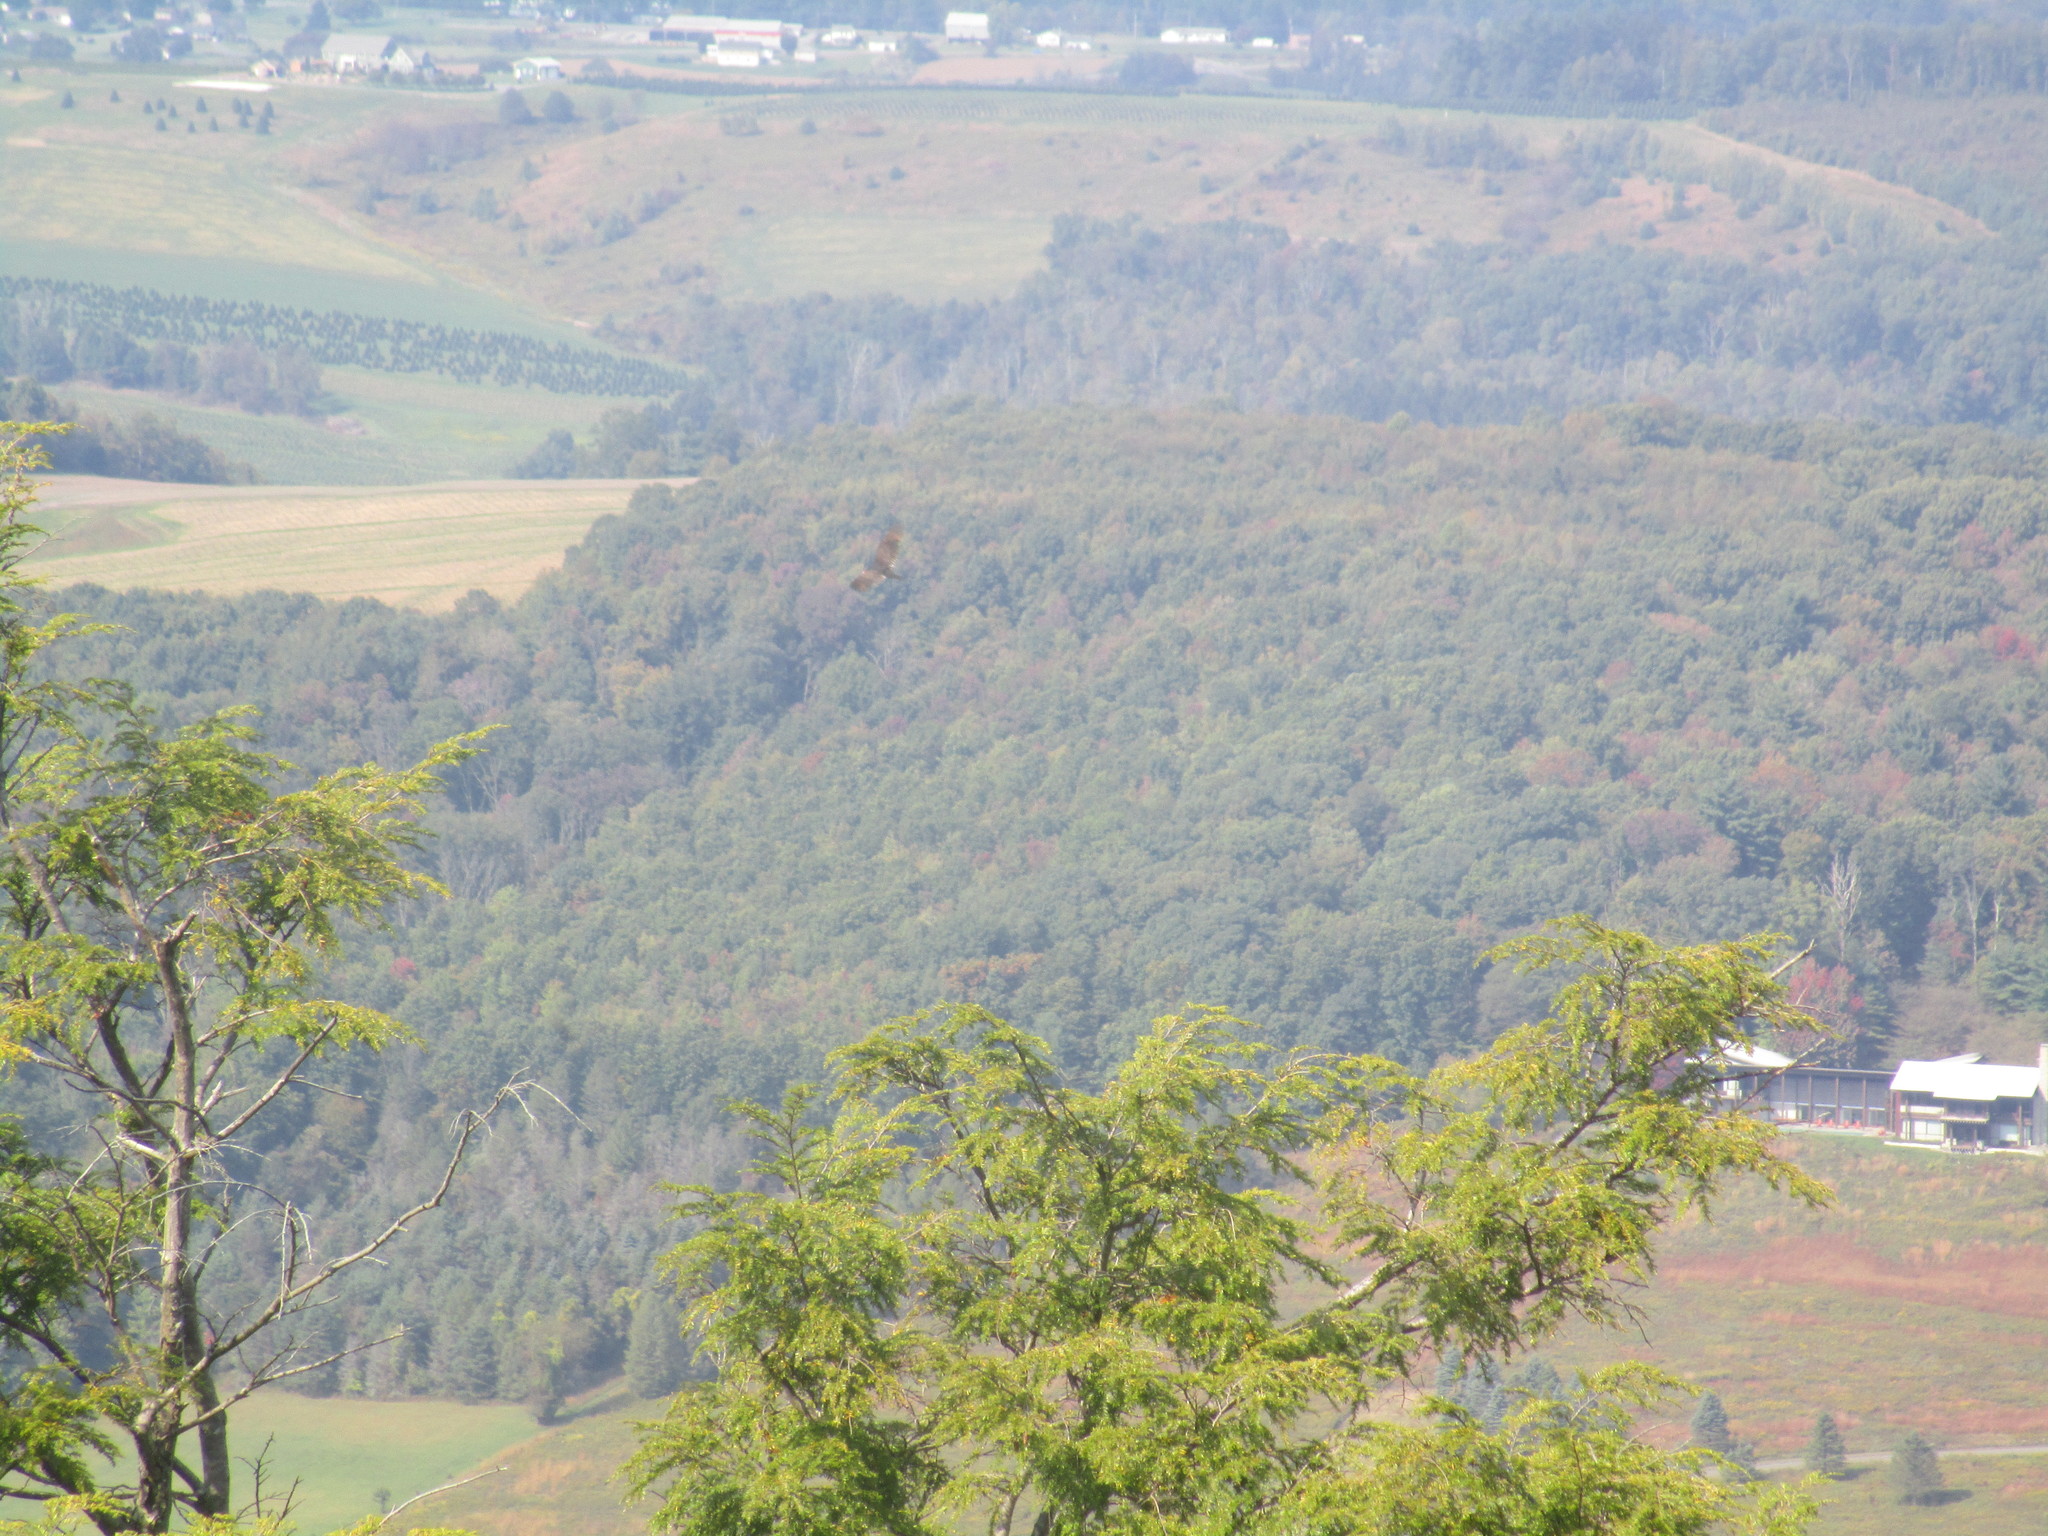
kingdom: Animalia
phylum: Chordata
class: Aves
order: Accipitriformes
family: Cathartidae
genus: Cathartes
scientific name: Cathartes aura
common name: Turkey vulture
